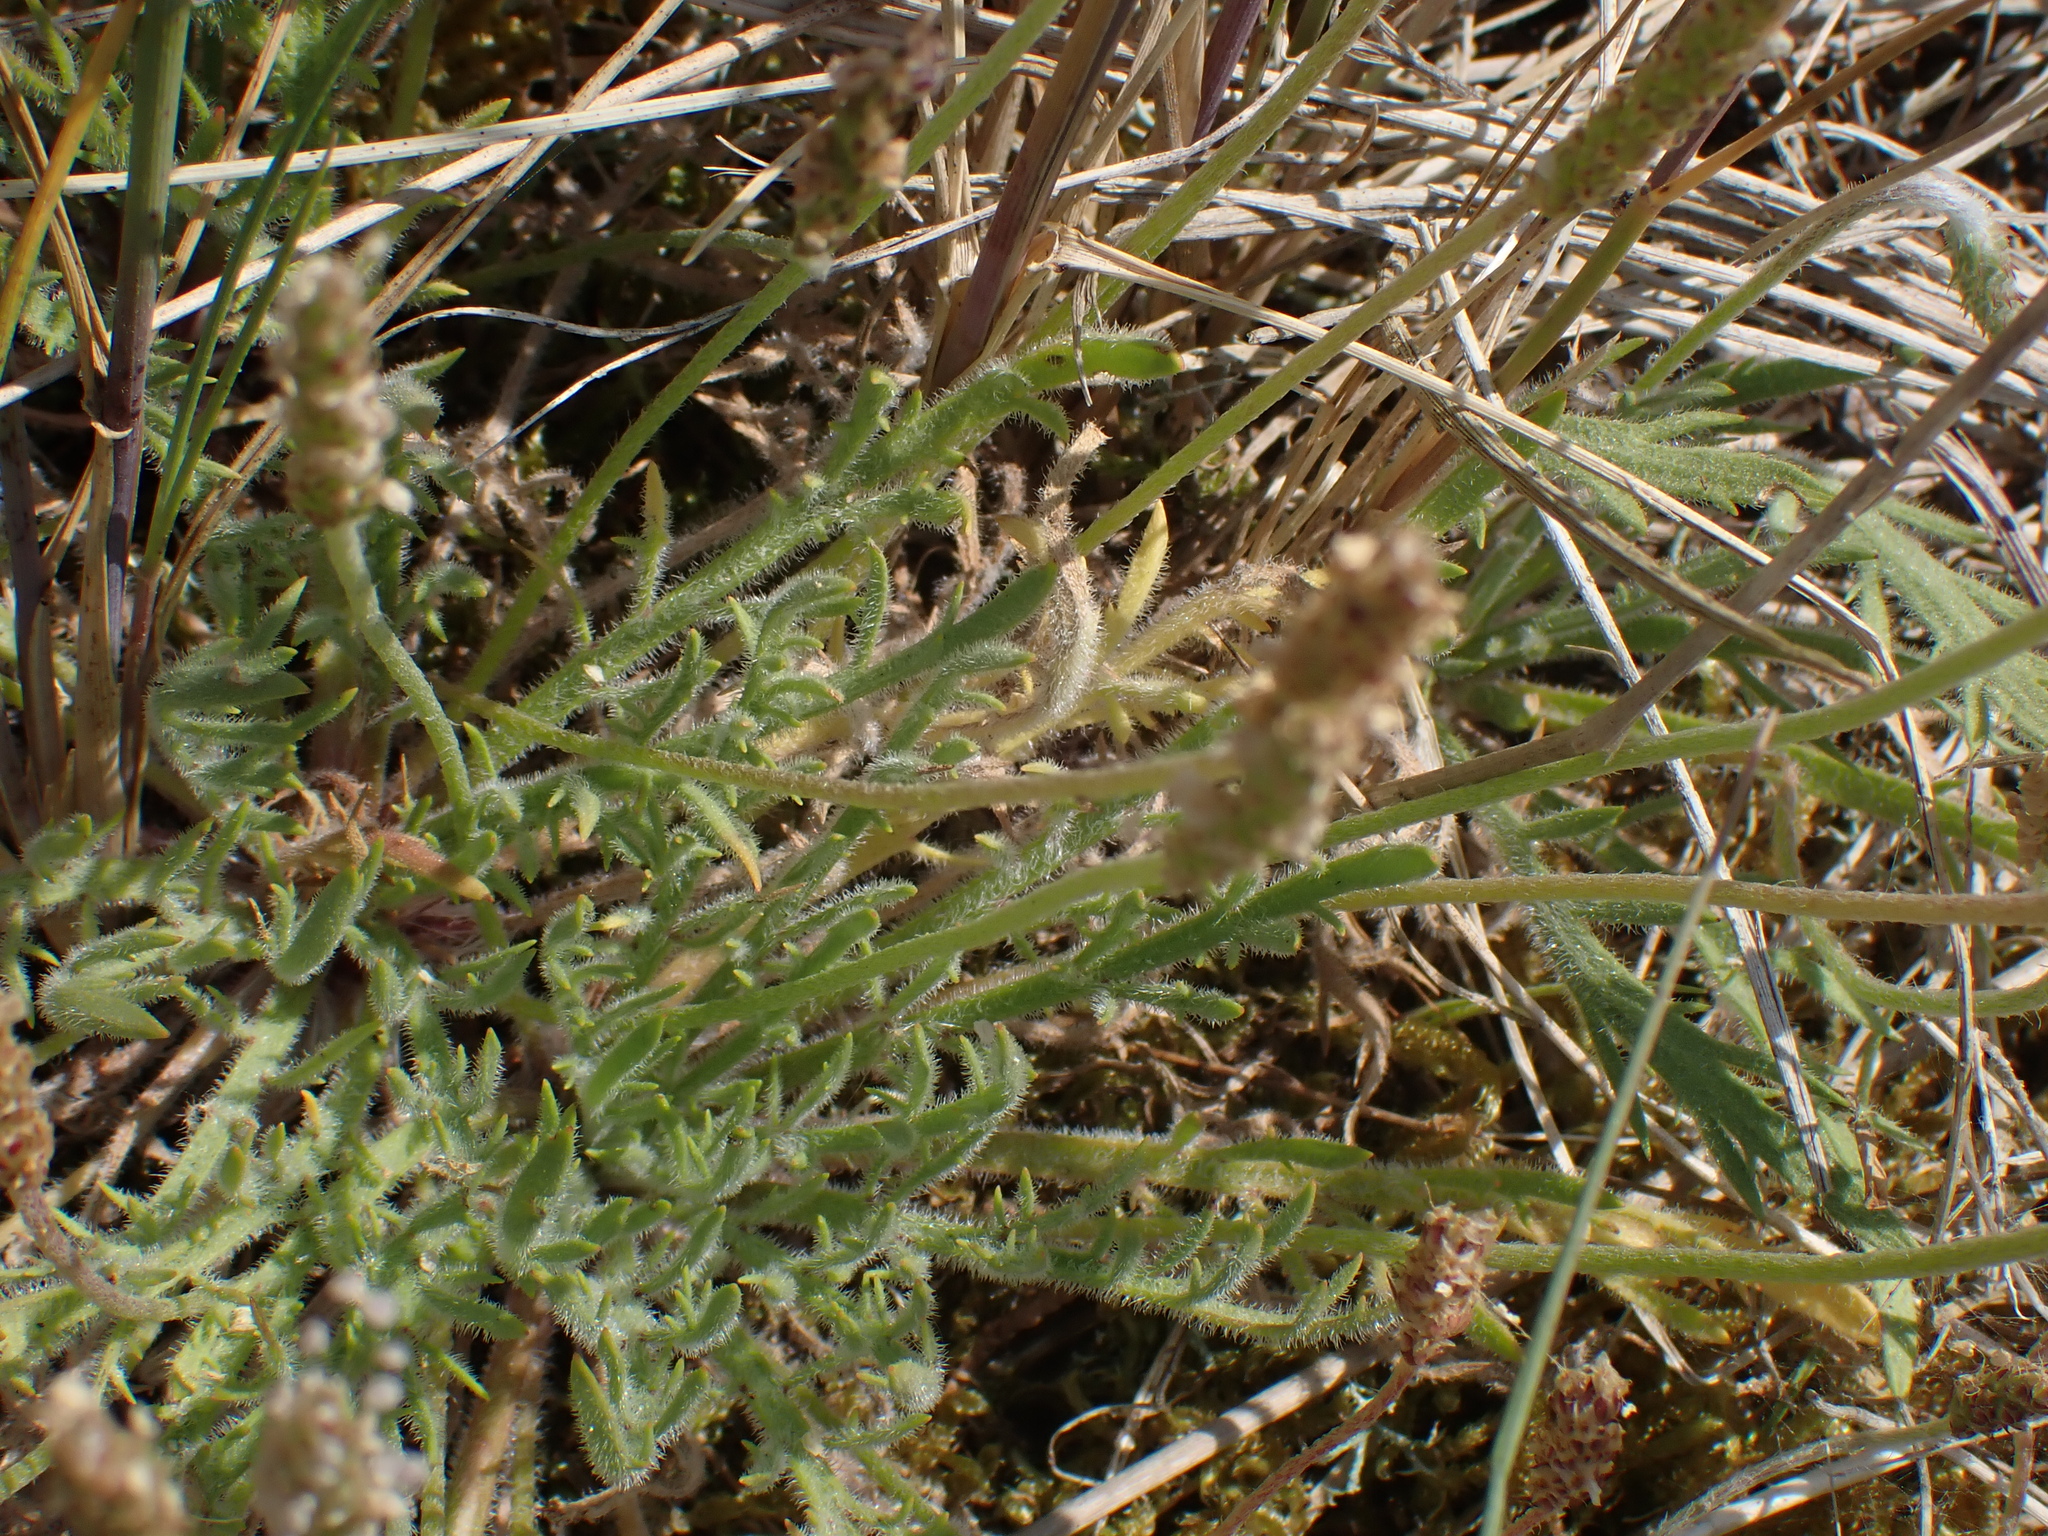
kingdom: Plantae
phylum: Tracheophyta
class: Magnoliopsida
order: Lamiales
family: Plantaginaceae
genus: Plantago
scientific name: Plantago coronopus
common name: Buck's-horn plantain
